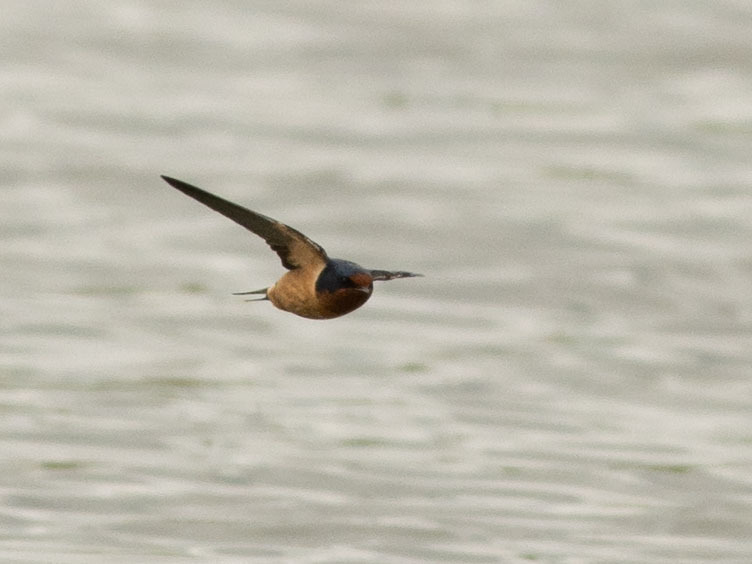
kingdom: Animalia
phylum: Chordata
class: Aves
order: Passeriformes
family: Hirundinidae
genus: Hirundo
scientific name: Hirundo rustica
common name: Barn swallow
